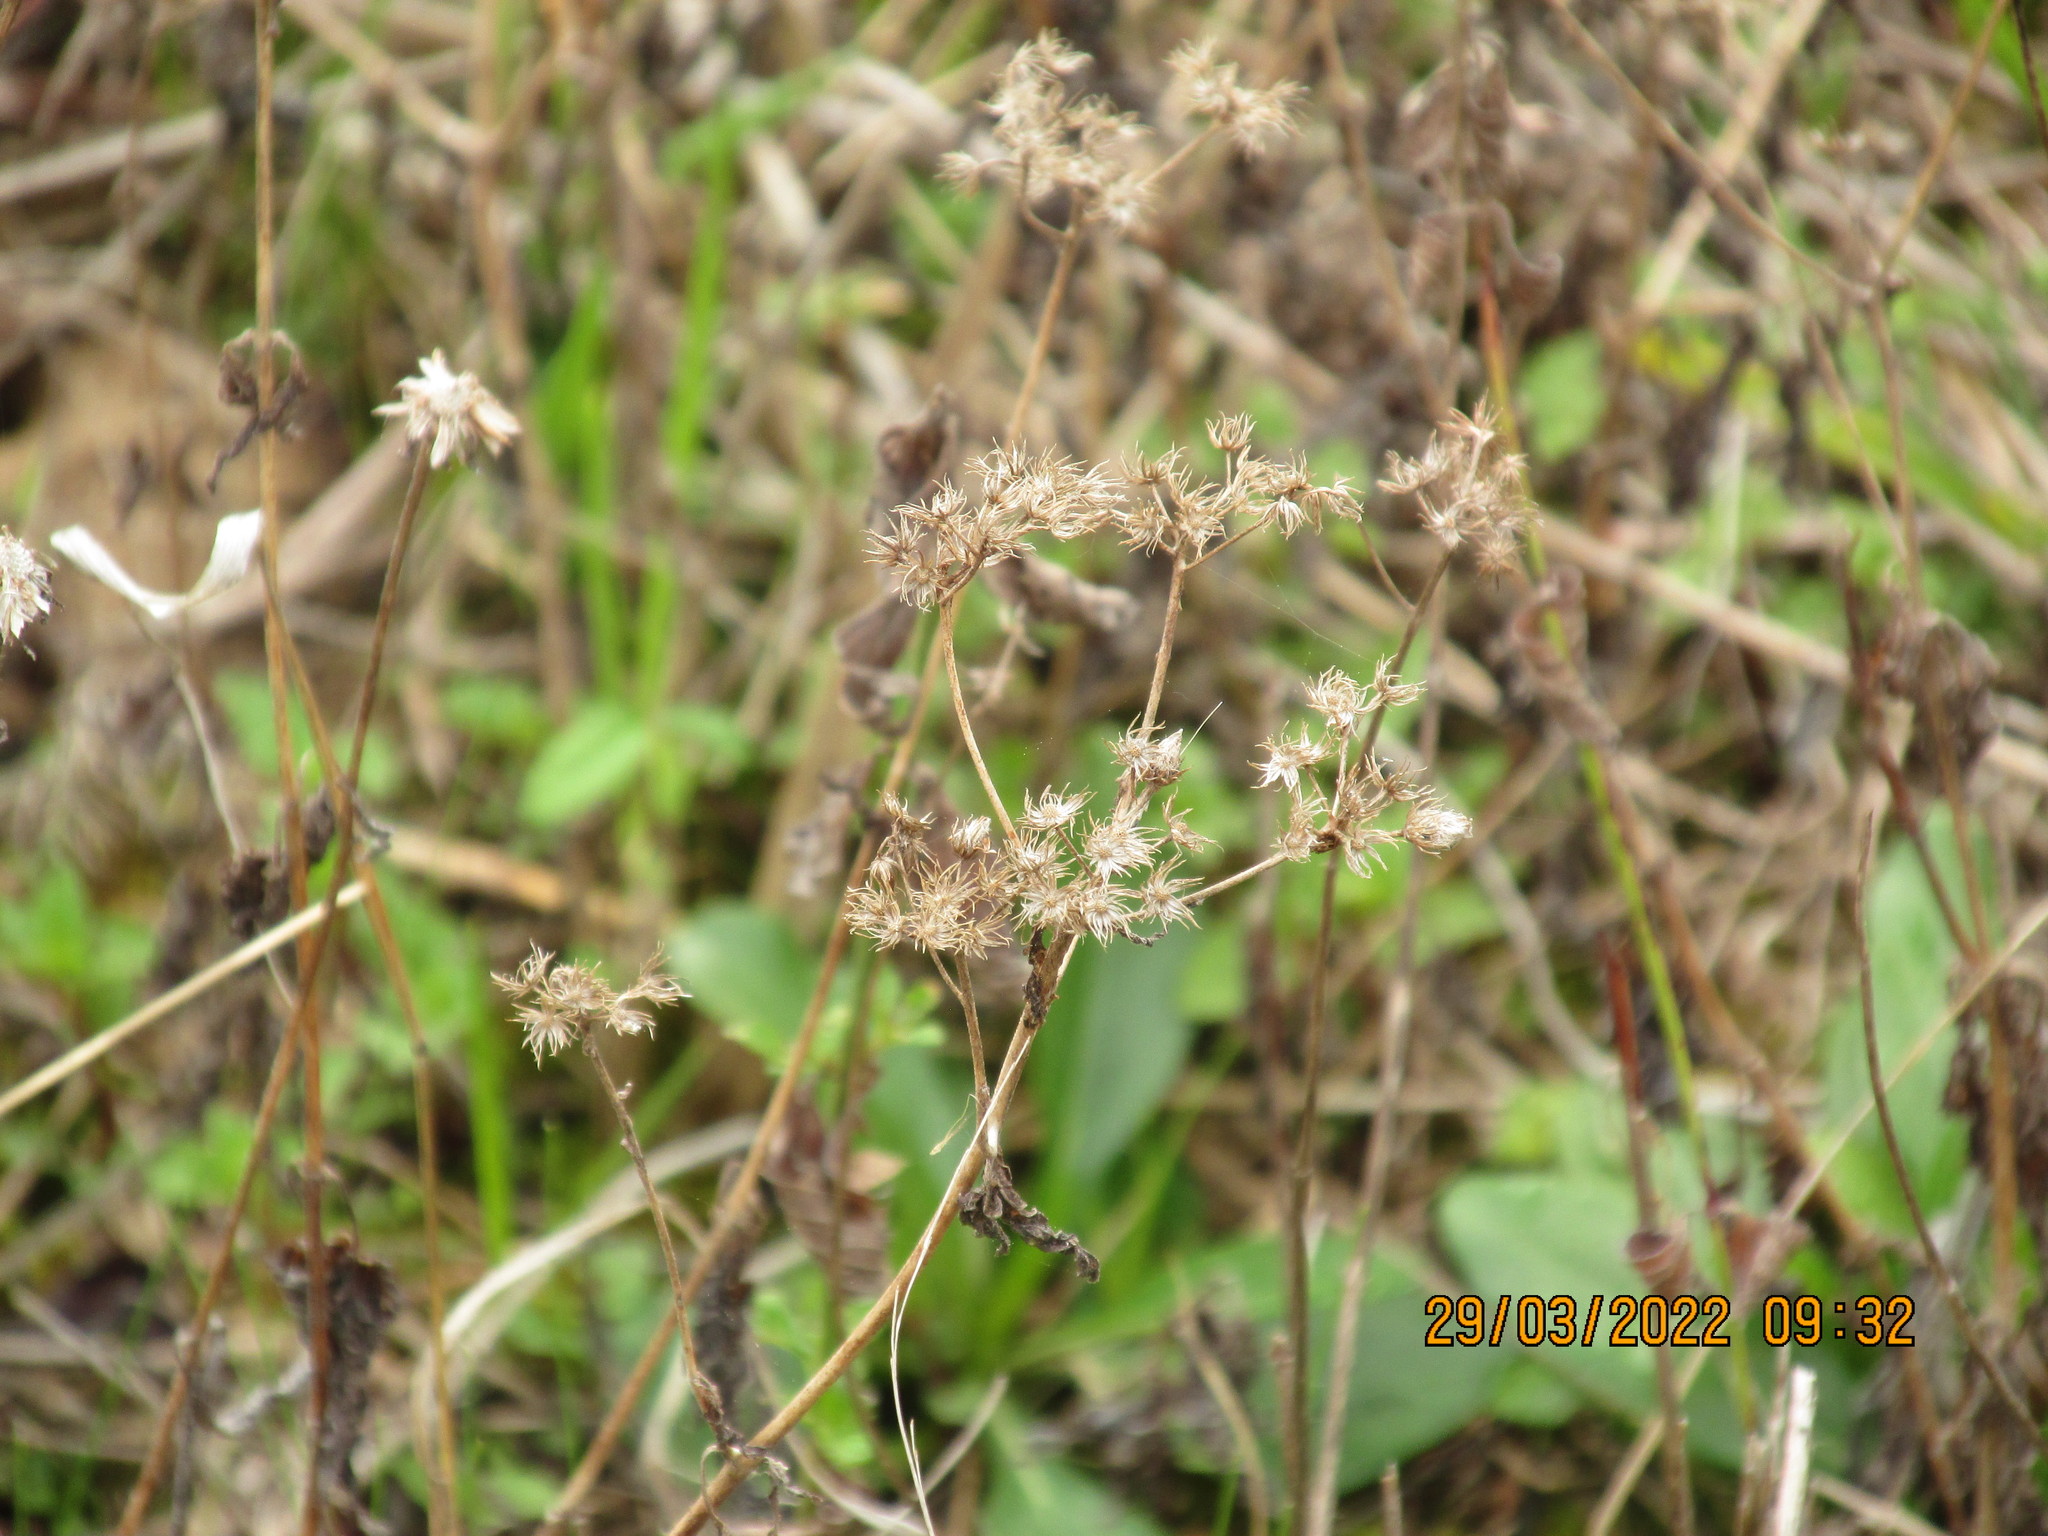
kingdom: Plantae
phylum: Tracheophyta
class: Magnoliopsida
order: Asterales
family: Asteraceae
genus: Conoclinium
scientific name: Conoclinium coelestinum
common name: Blue mistflower
